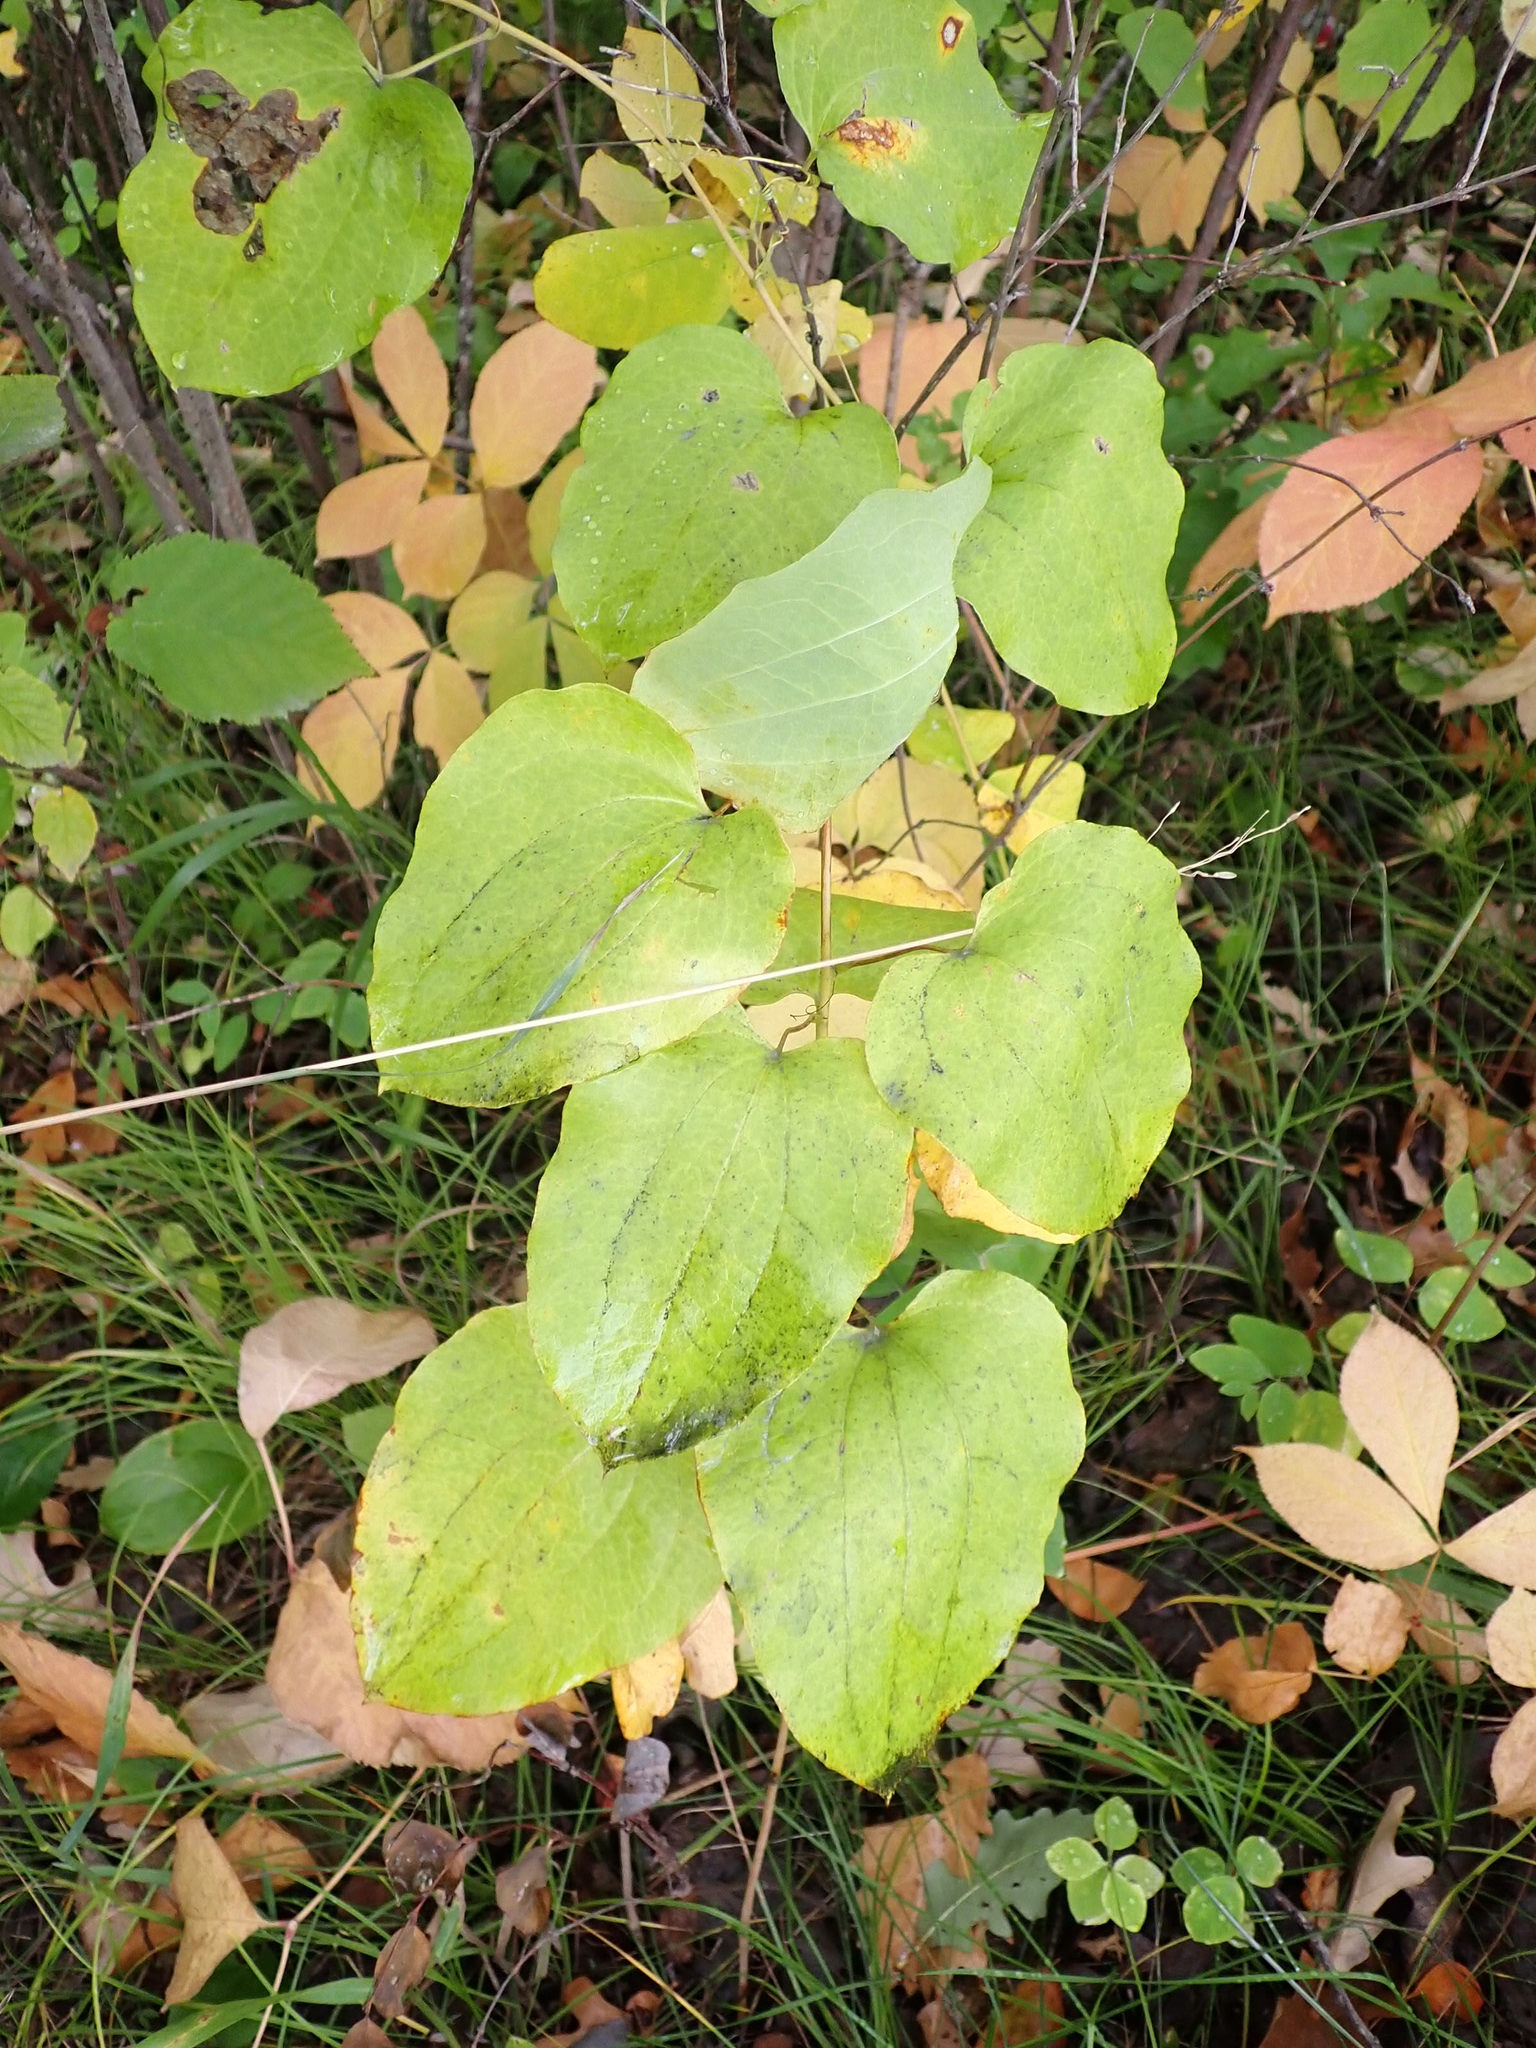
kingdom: Plantae
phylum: Tracheophyta
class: Liliopsida
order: Liliales
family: Smilacaceae
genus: Smilax
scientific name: Smilax lasioneura
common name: Blue ridge carrionflower
